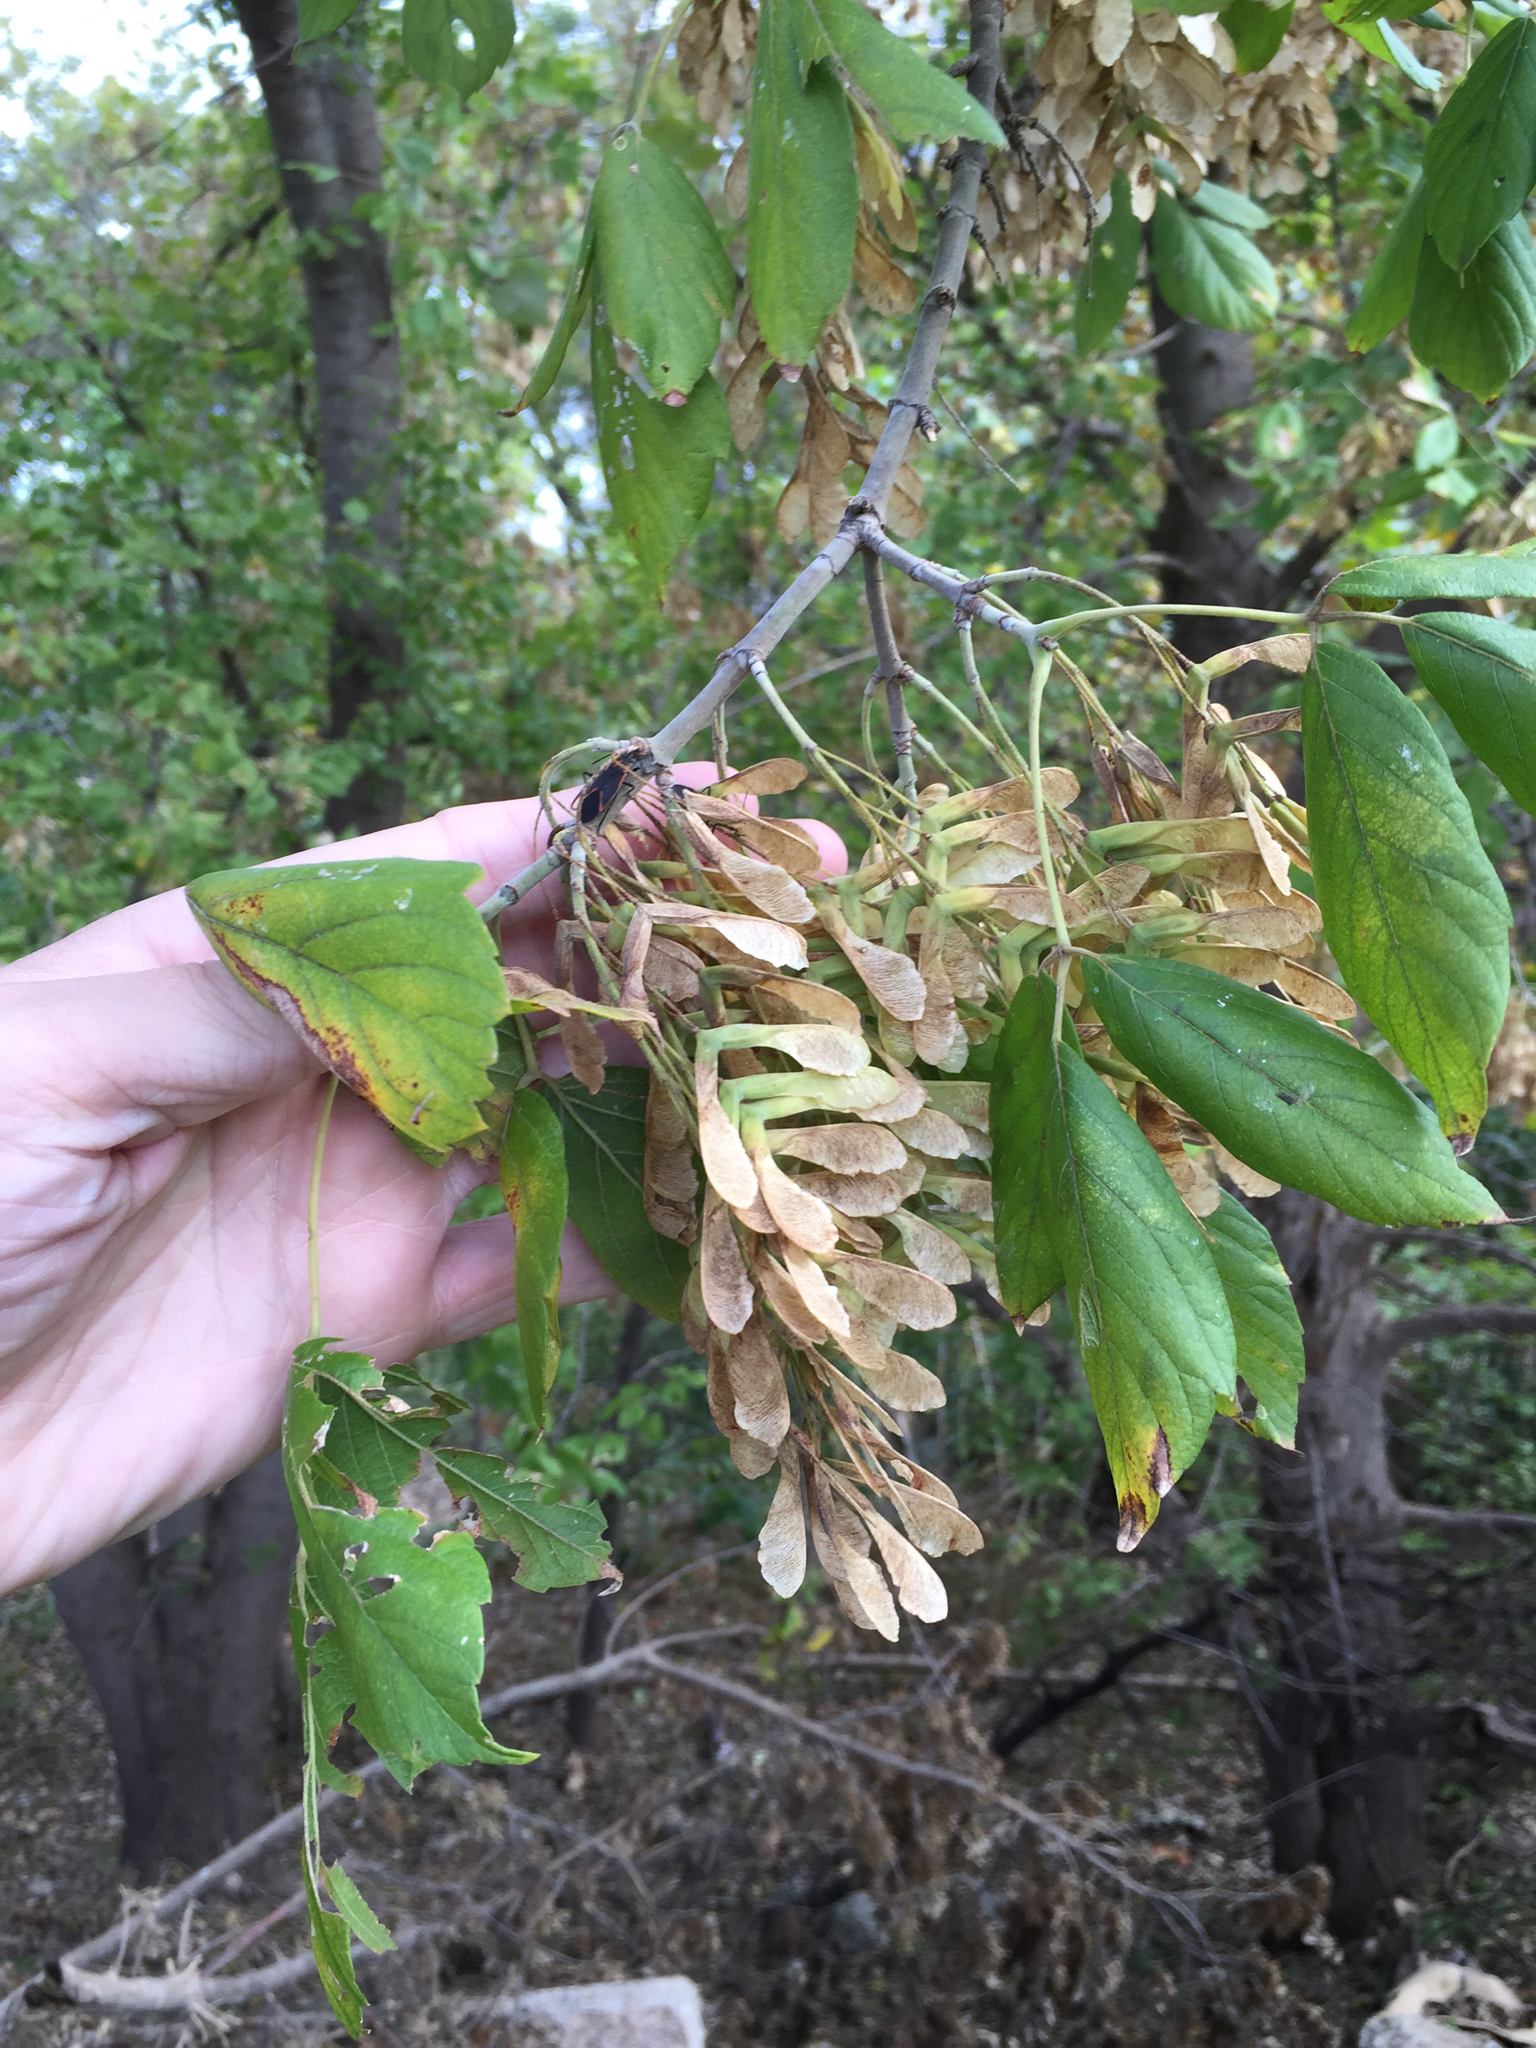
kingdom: Plantae
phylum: Tracheophyta
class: Magnoliopsida
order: Sapindales
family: Sapindaceae
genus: Acer
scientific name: Acer negundo
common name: Ashleaf maple
